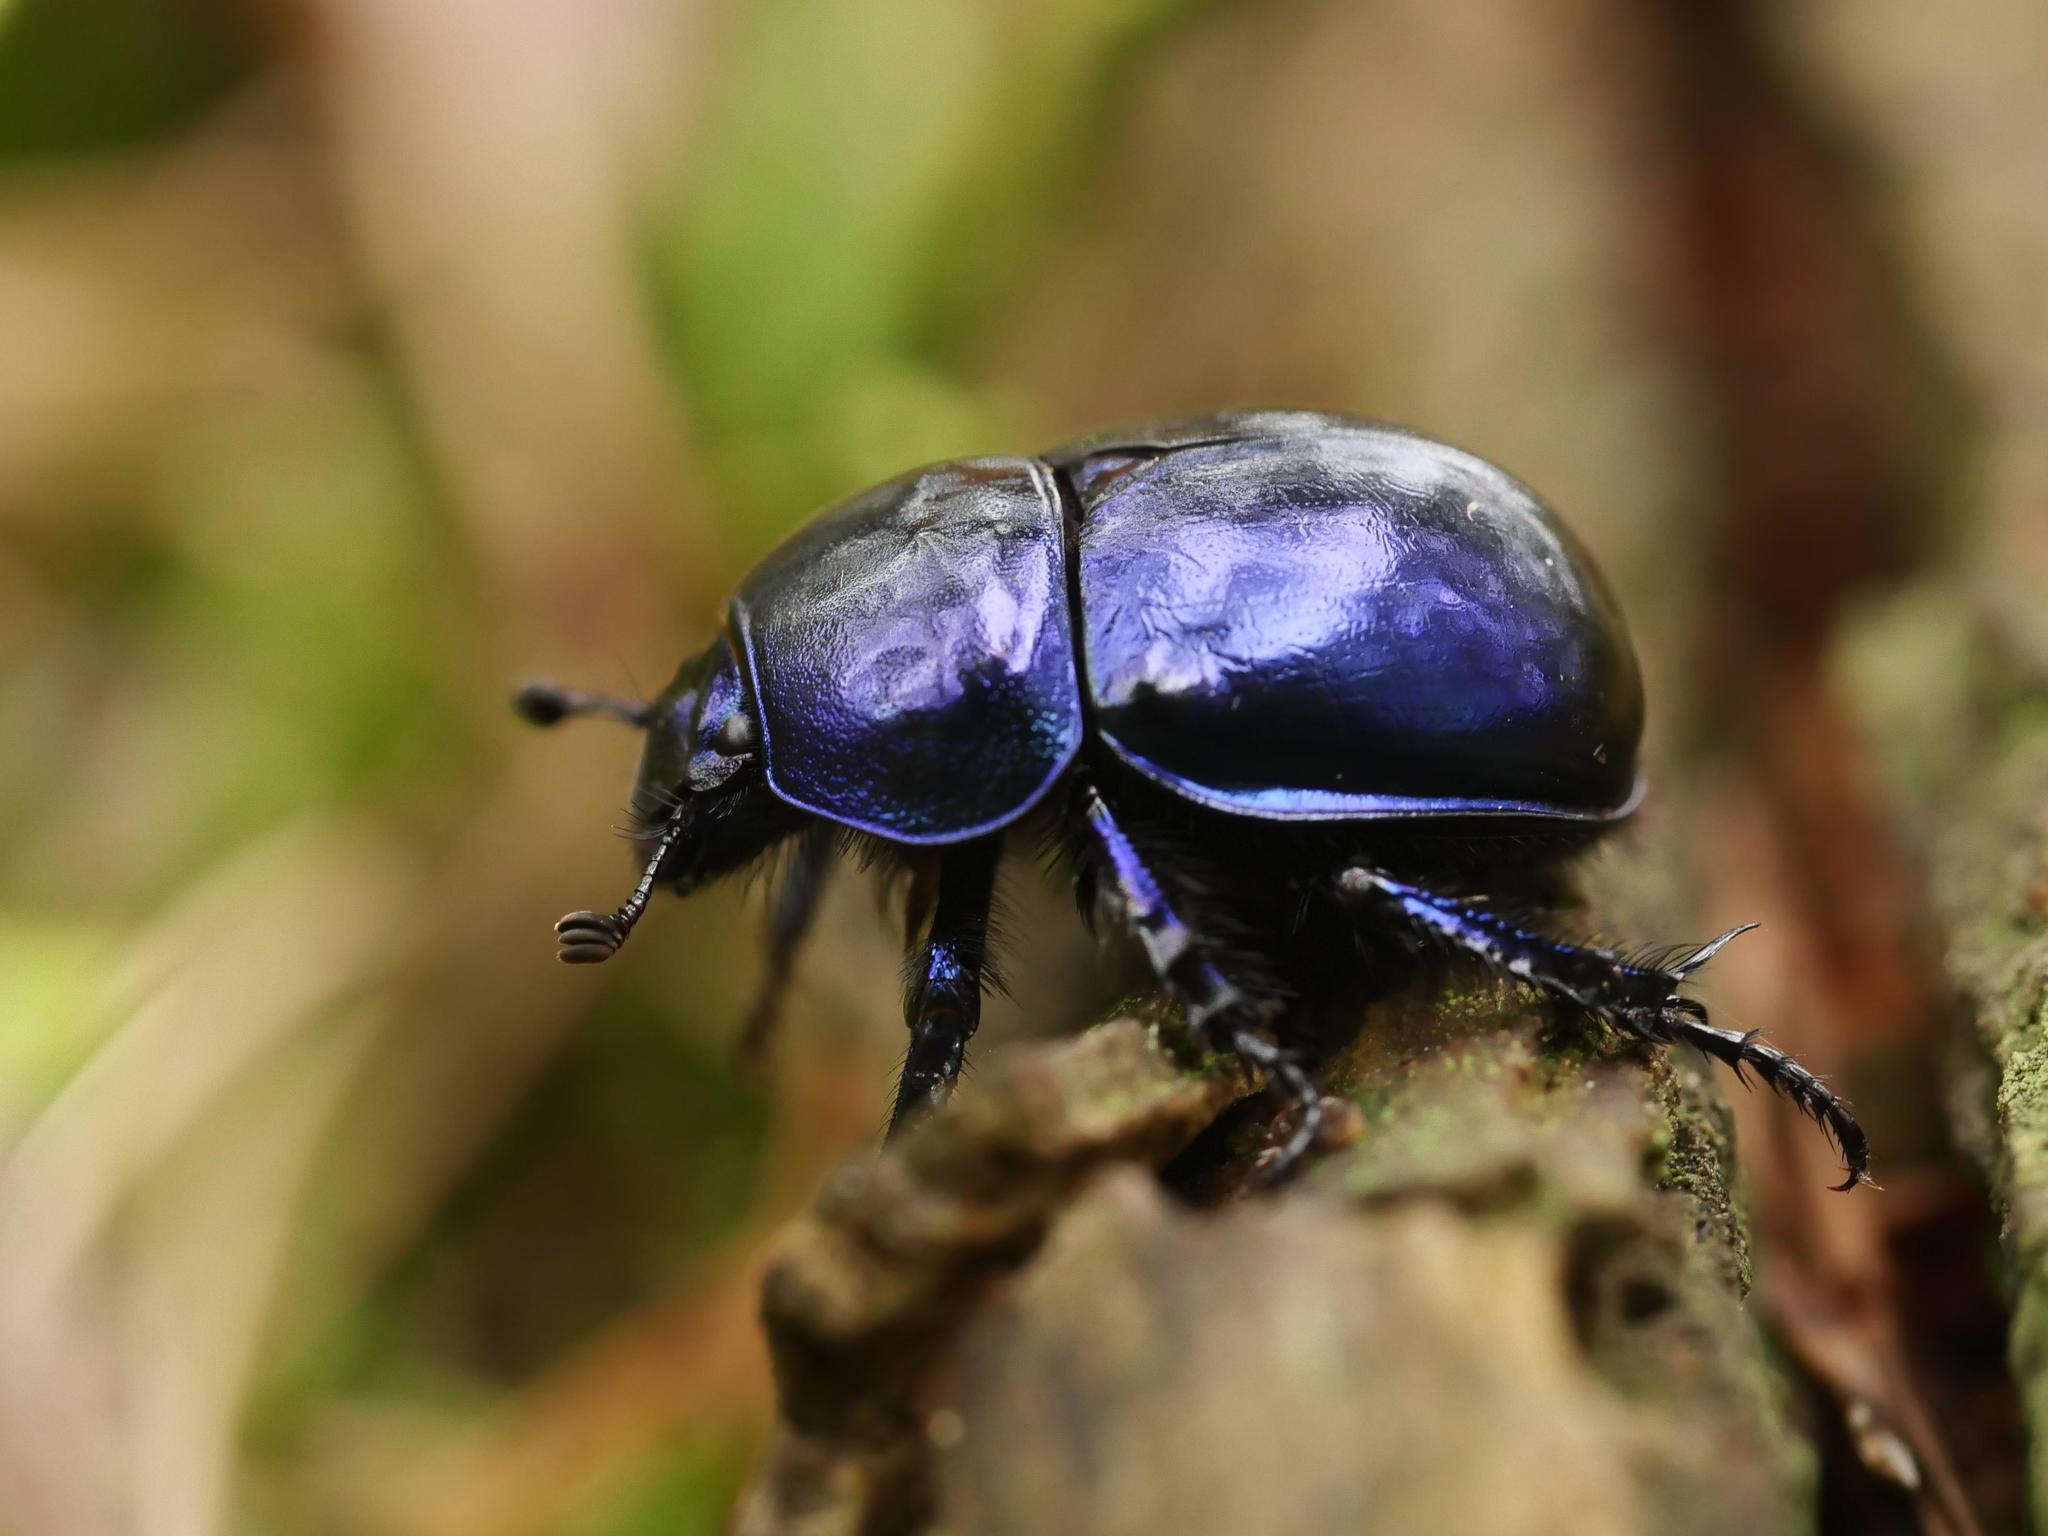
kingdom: Animalia
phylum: Arthropoda
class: Insecta
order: Coleoptera
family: Geotrupidae
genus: Trypocopris
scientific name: Trypocopris vernalis
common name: Spring dumbledor
